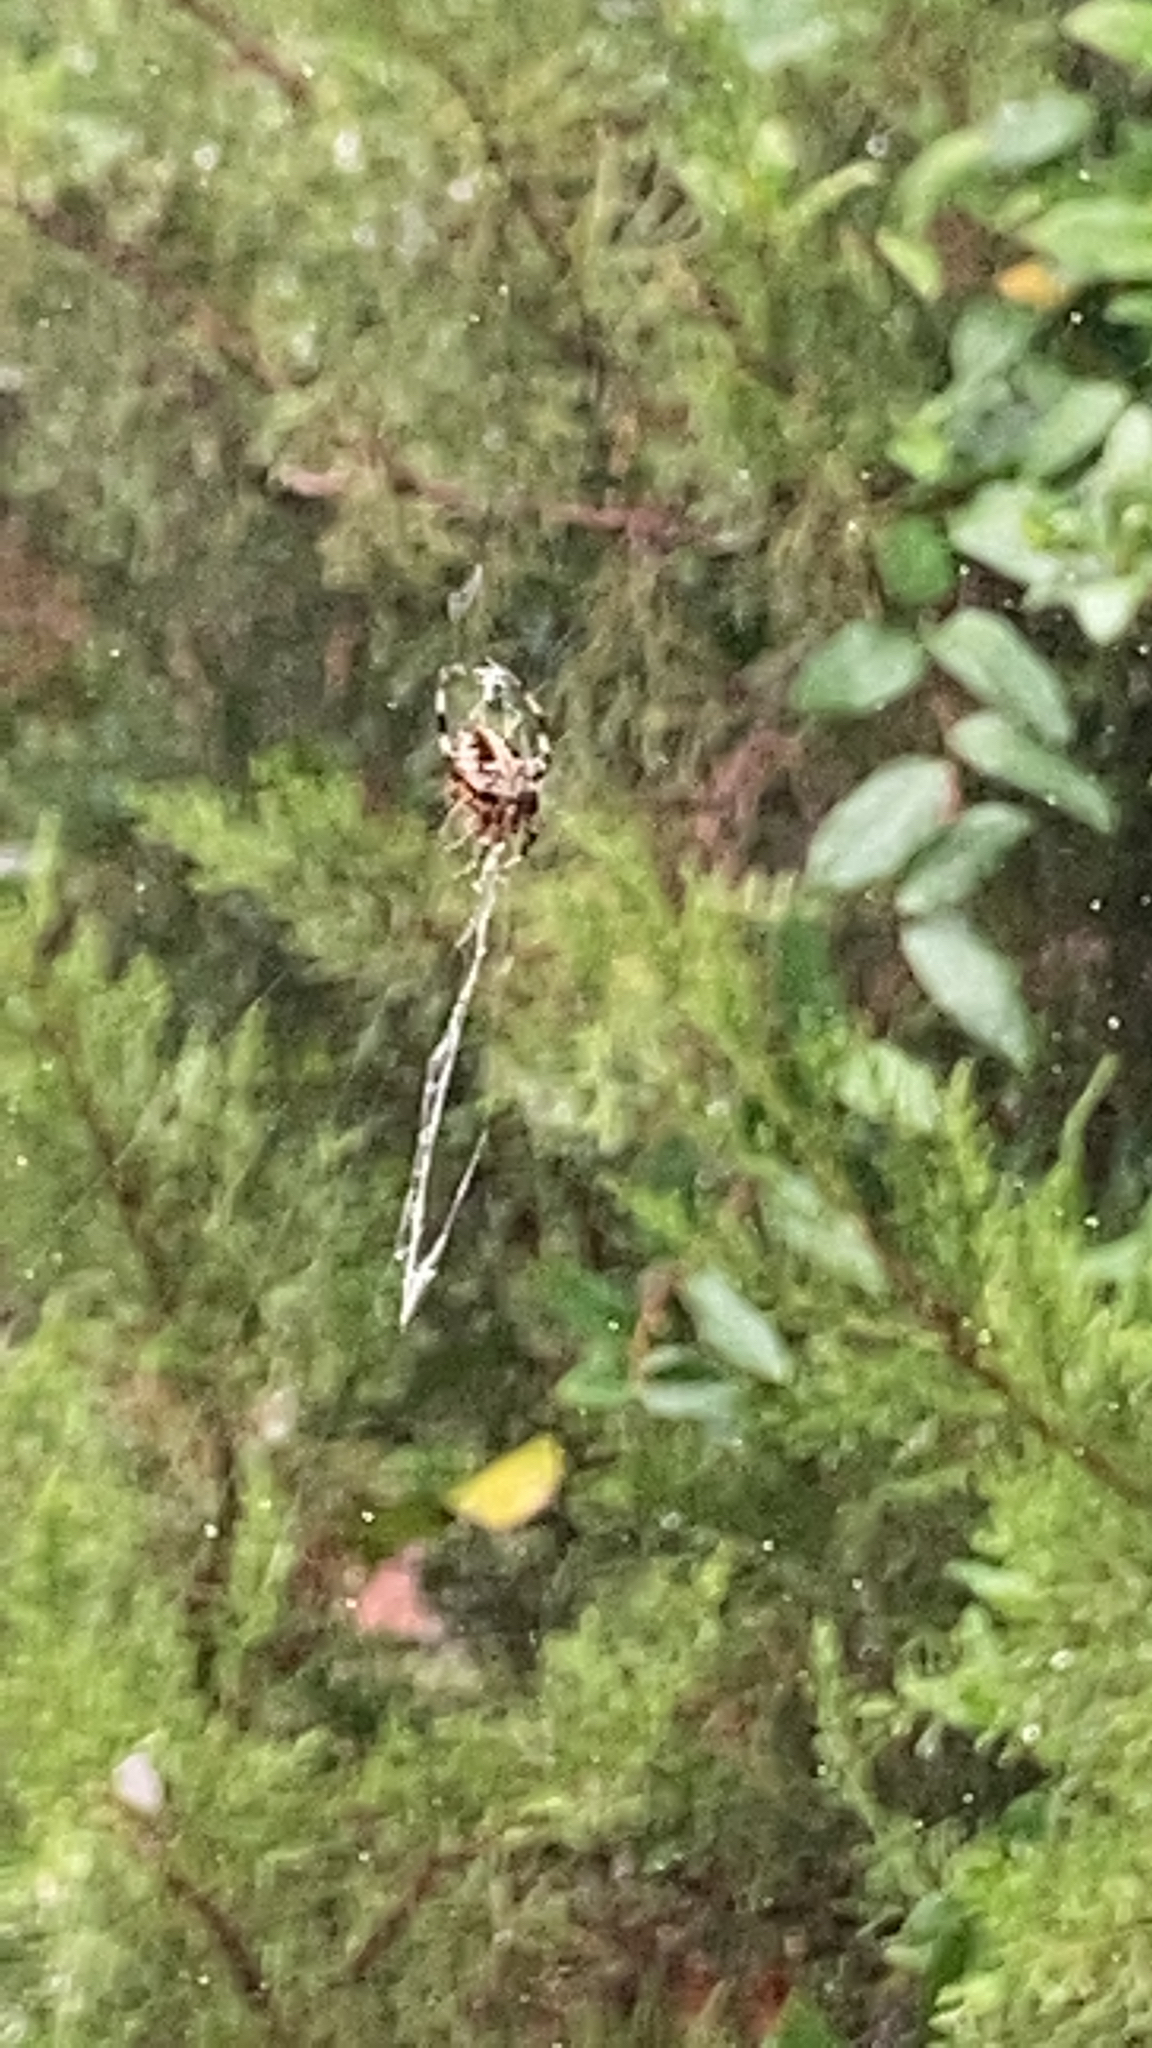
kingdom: Animalia
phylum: Arthropoda
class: Arachnida
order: Araneae
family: Araneidae
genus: Neoscona
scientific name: Neoscona domiciliorum
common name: Red-femured spotted orbweaver
